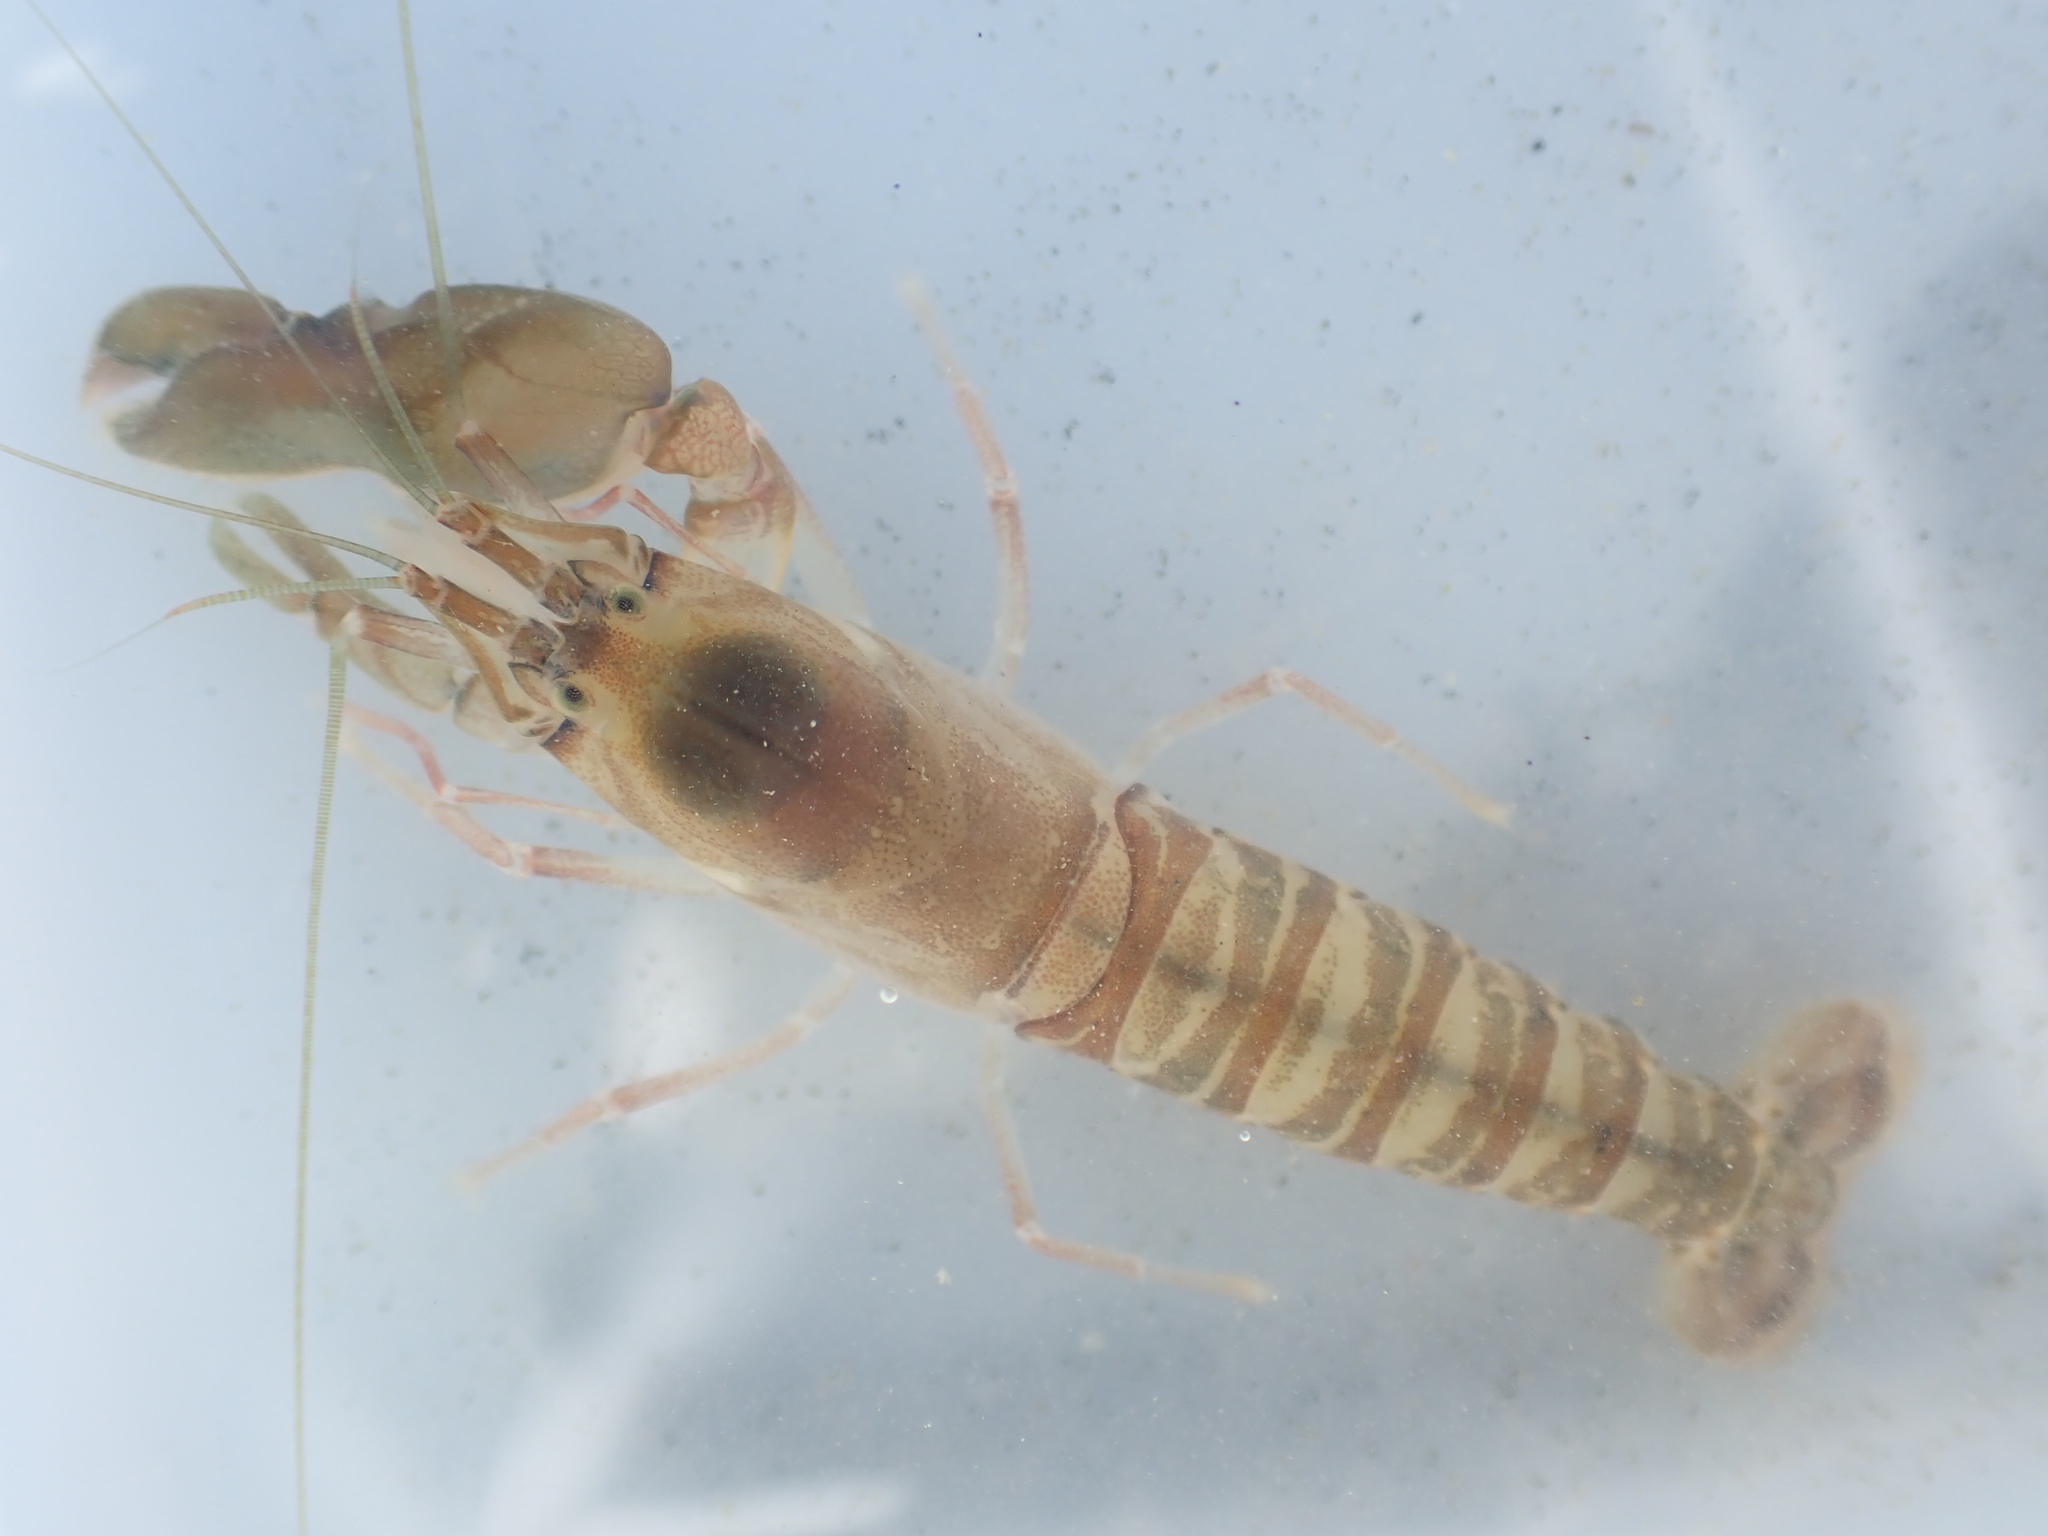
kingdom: Animalia
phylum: Arthropoda
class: Malacostraca
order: Decapoda
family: Alpheidae
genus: Alpheus
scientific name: Alpheus richardsoni
